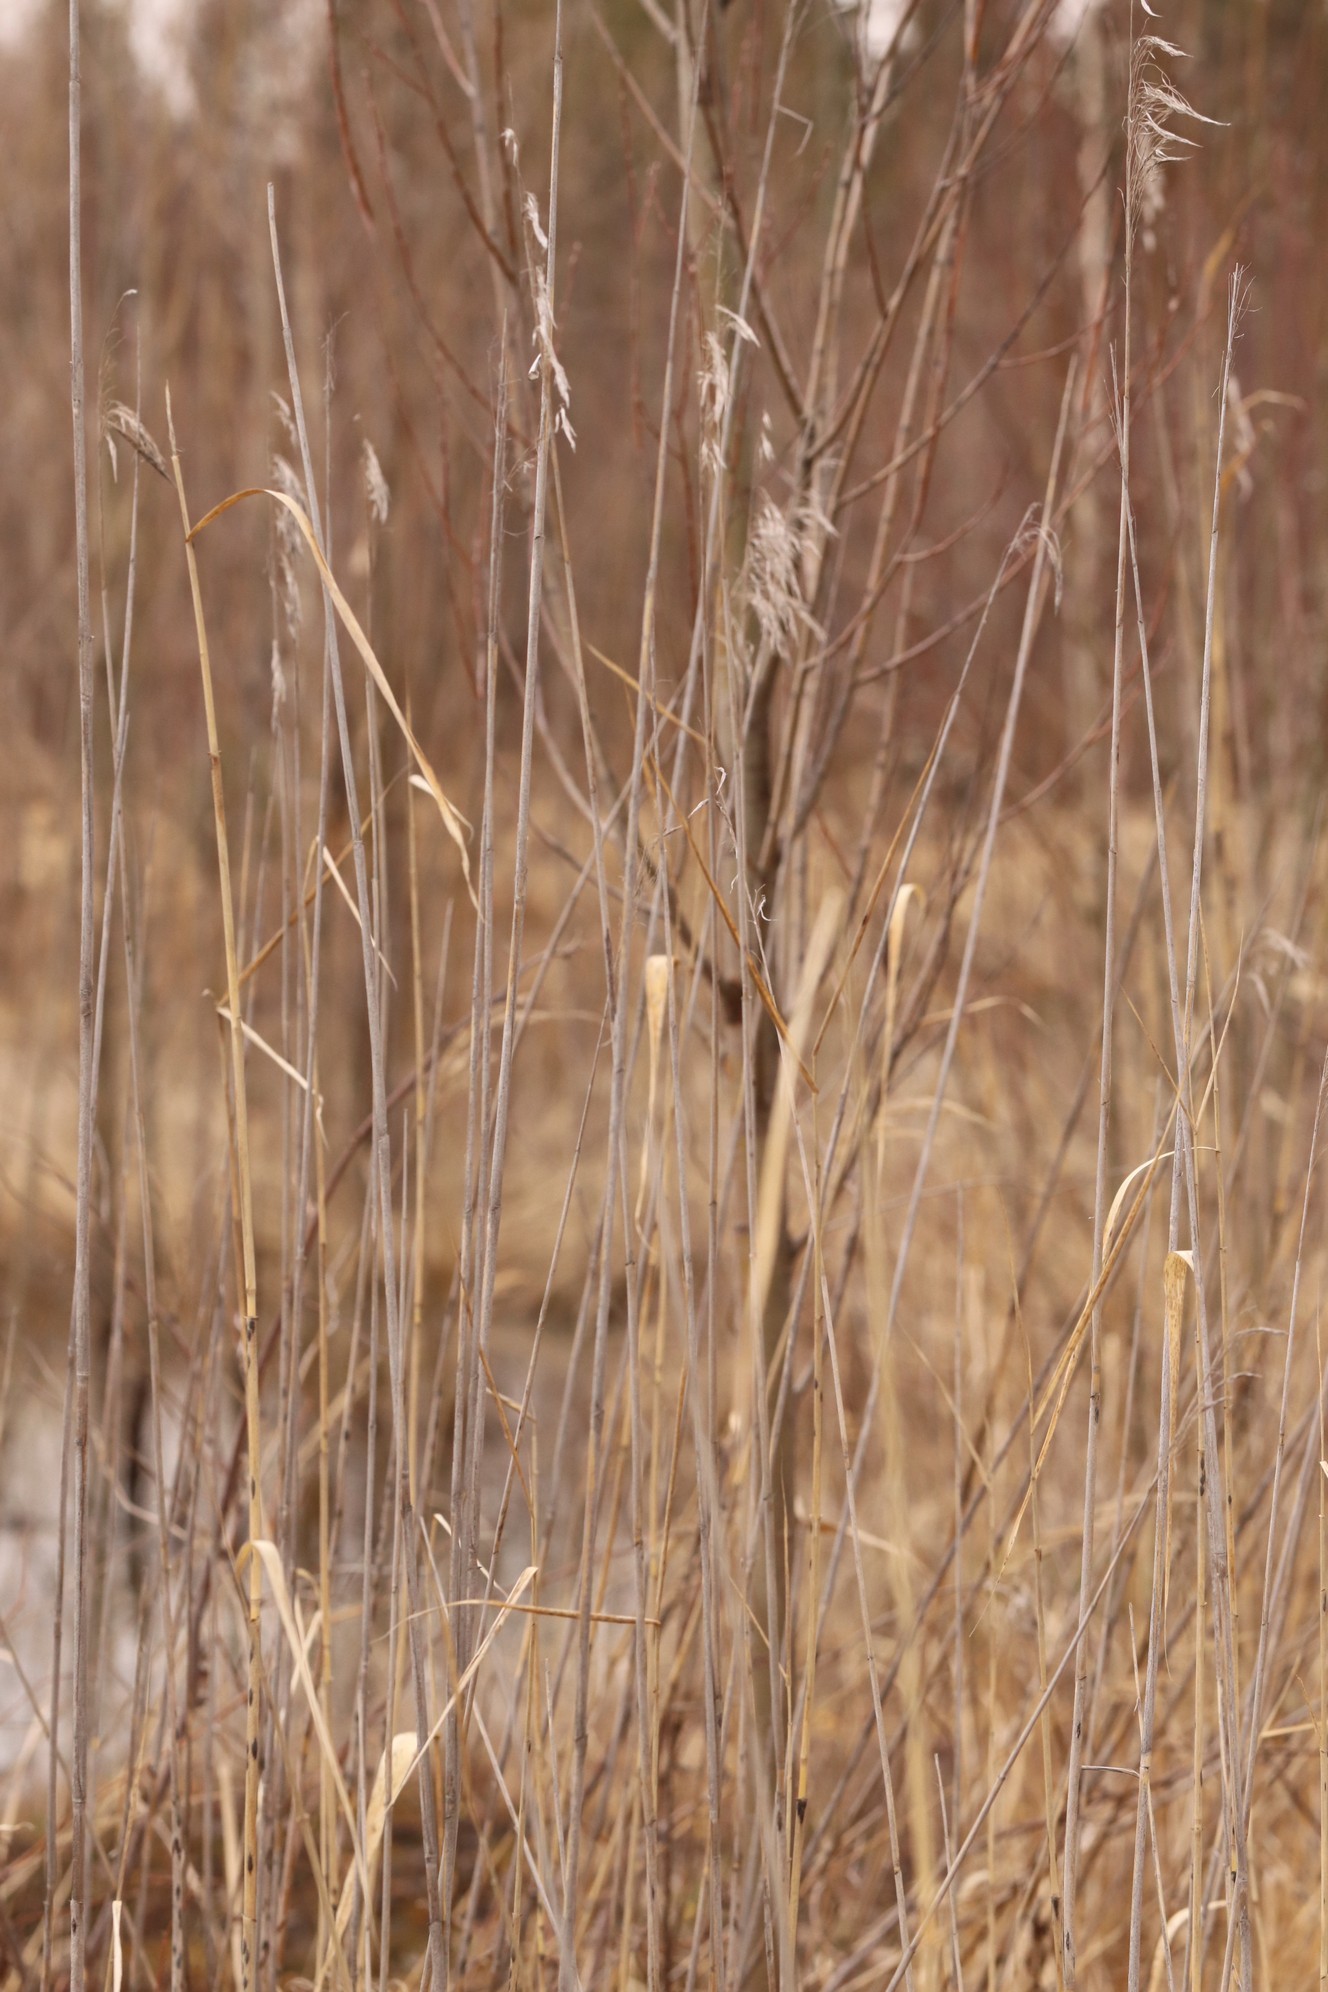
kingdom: Plantae
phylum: Tracheophyta
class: Liliopsida
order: Poales
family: Poaceae
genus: Phragmites
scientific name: Phragmites australis
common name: Common reed
